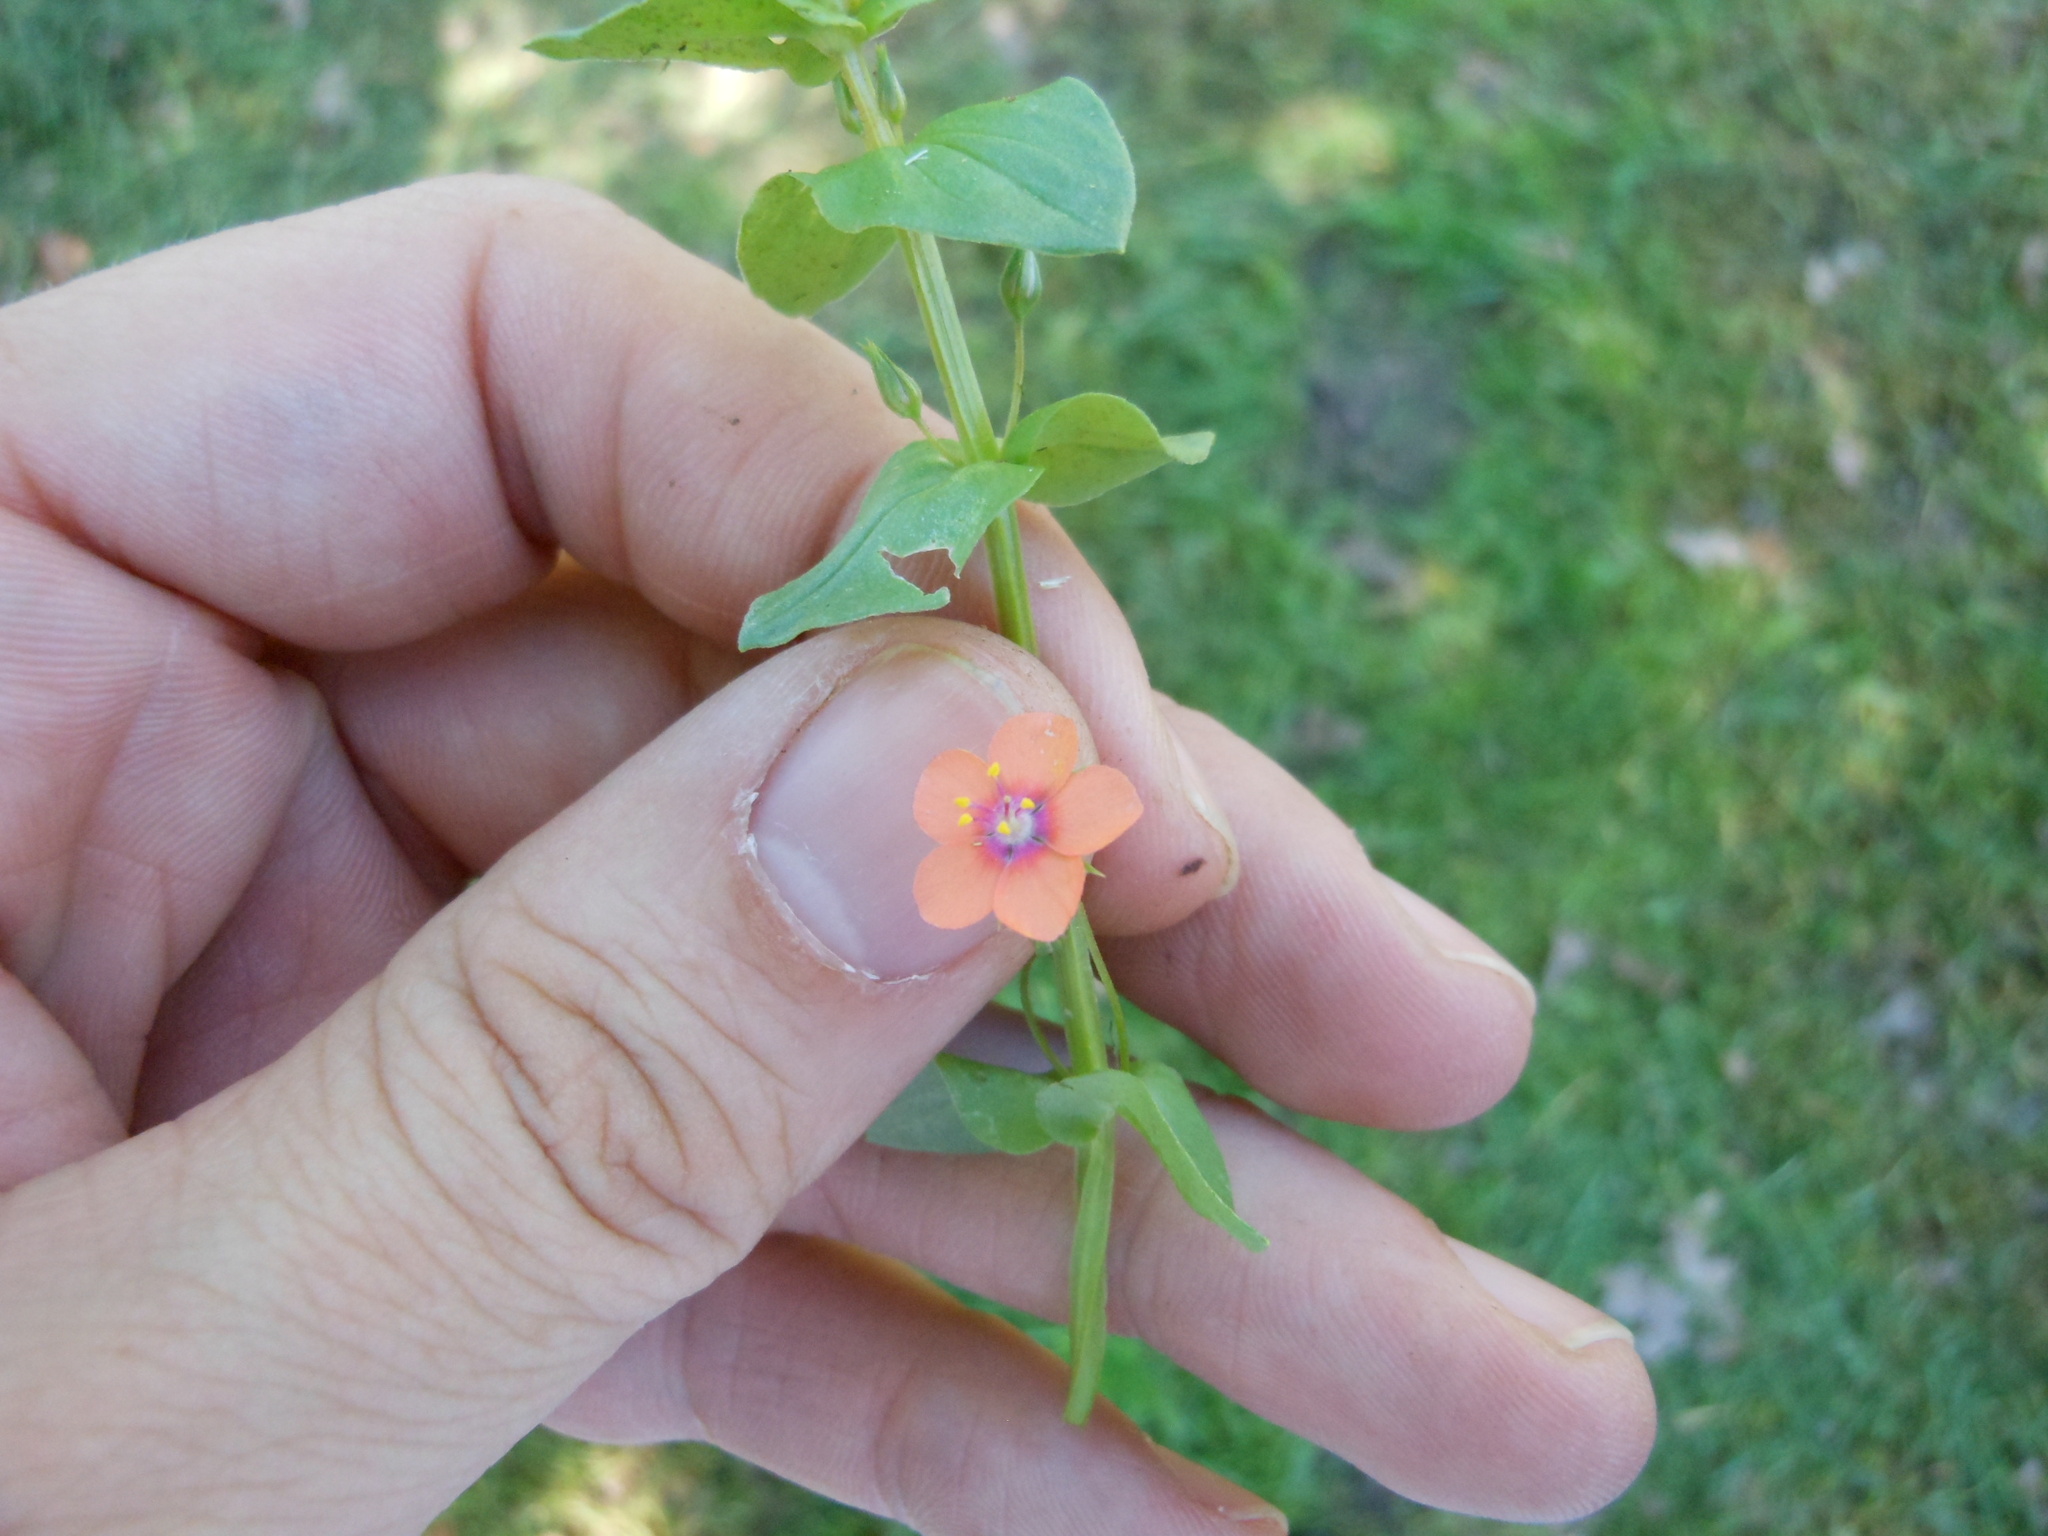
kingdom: Plantae
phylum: Tracheophyta
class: Magnoliopsida
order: Ericales
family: Primulaceae
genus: Lysimachia
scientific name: Lysimachia arvensis
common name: Scarlet pimpernel
